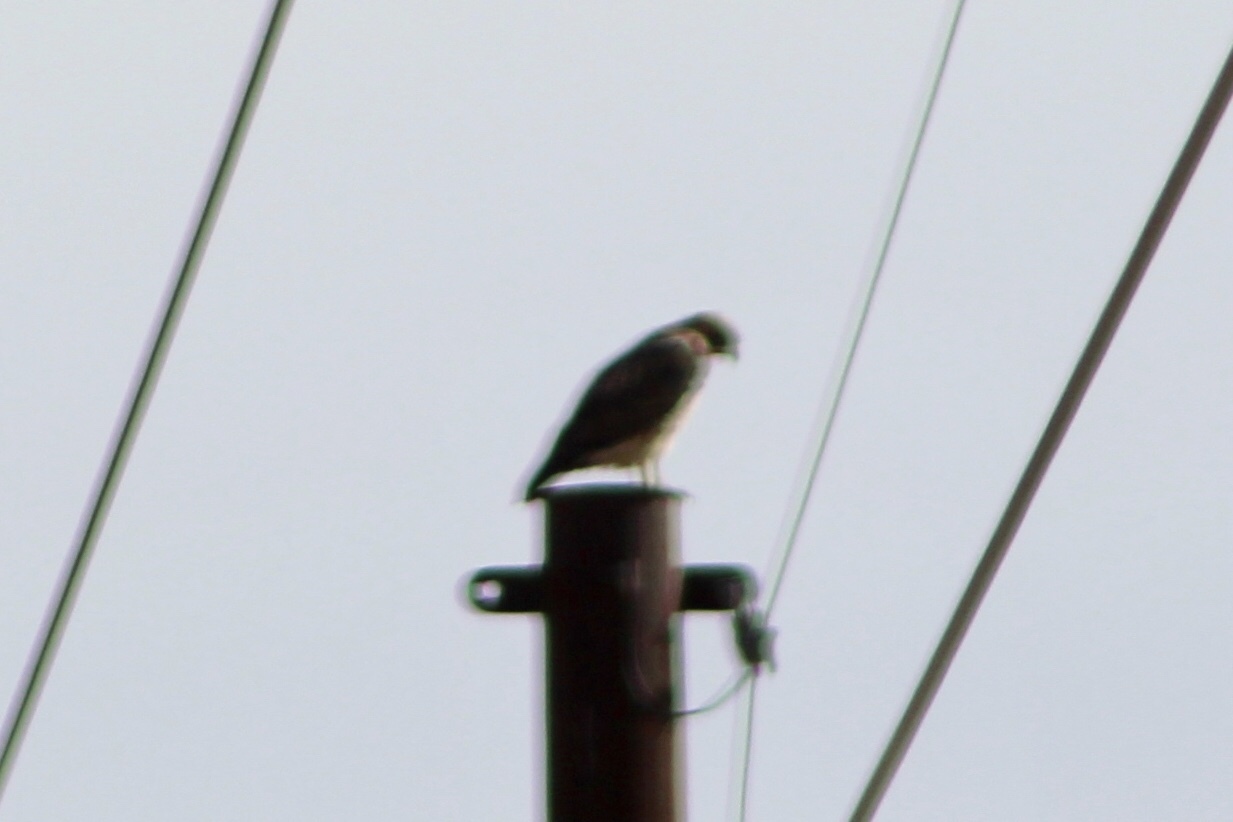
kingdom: Animalia
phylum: Chordata
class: Aves
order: Accipitriformes
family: Accipitridae
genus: Buteo
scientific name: Buteo jamaicensis
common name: Red-tailed hawk
